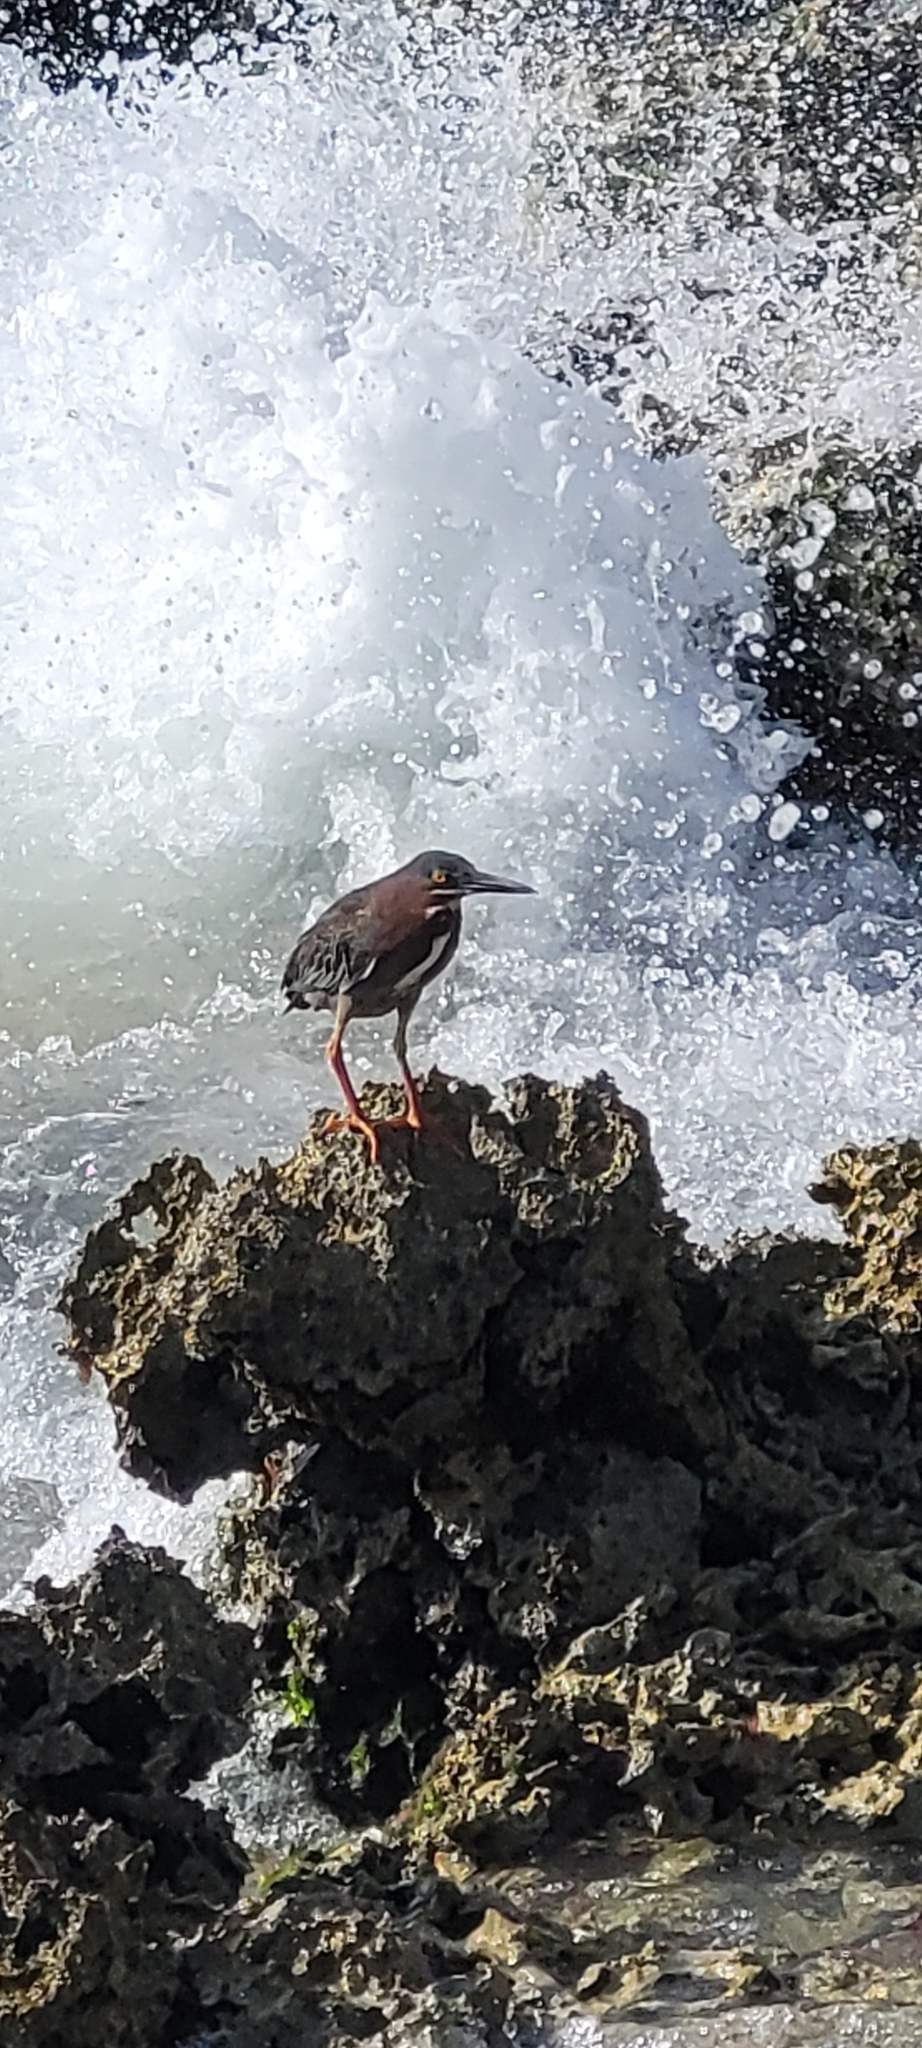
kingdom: Animalia
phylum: Chordata
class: Aves
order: Pelecaniformes
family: Ardeidae
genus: Butorides
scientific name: Butorides virescens
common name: Green heron
